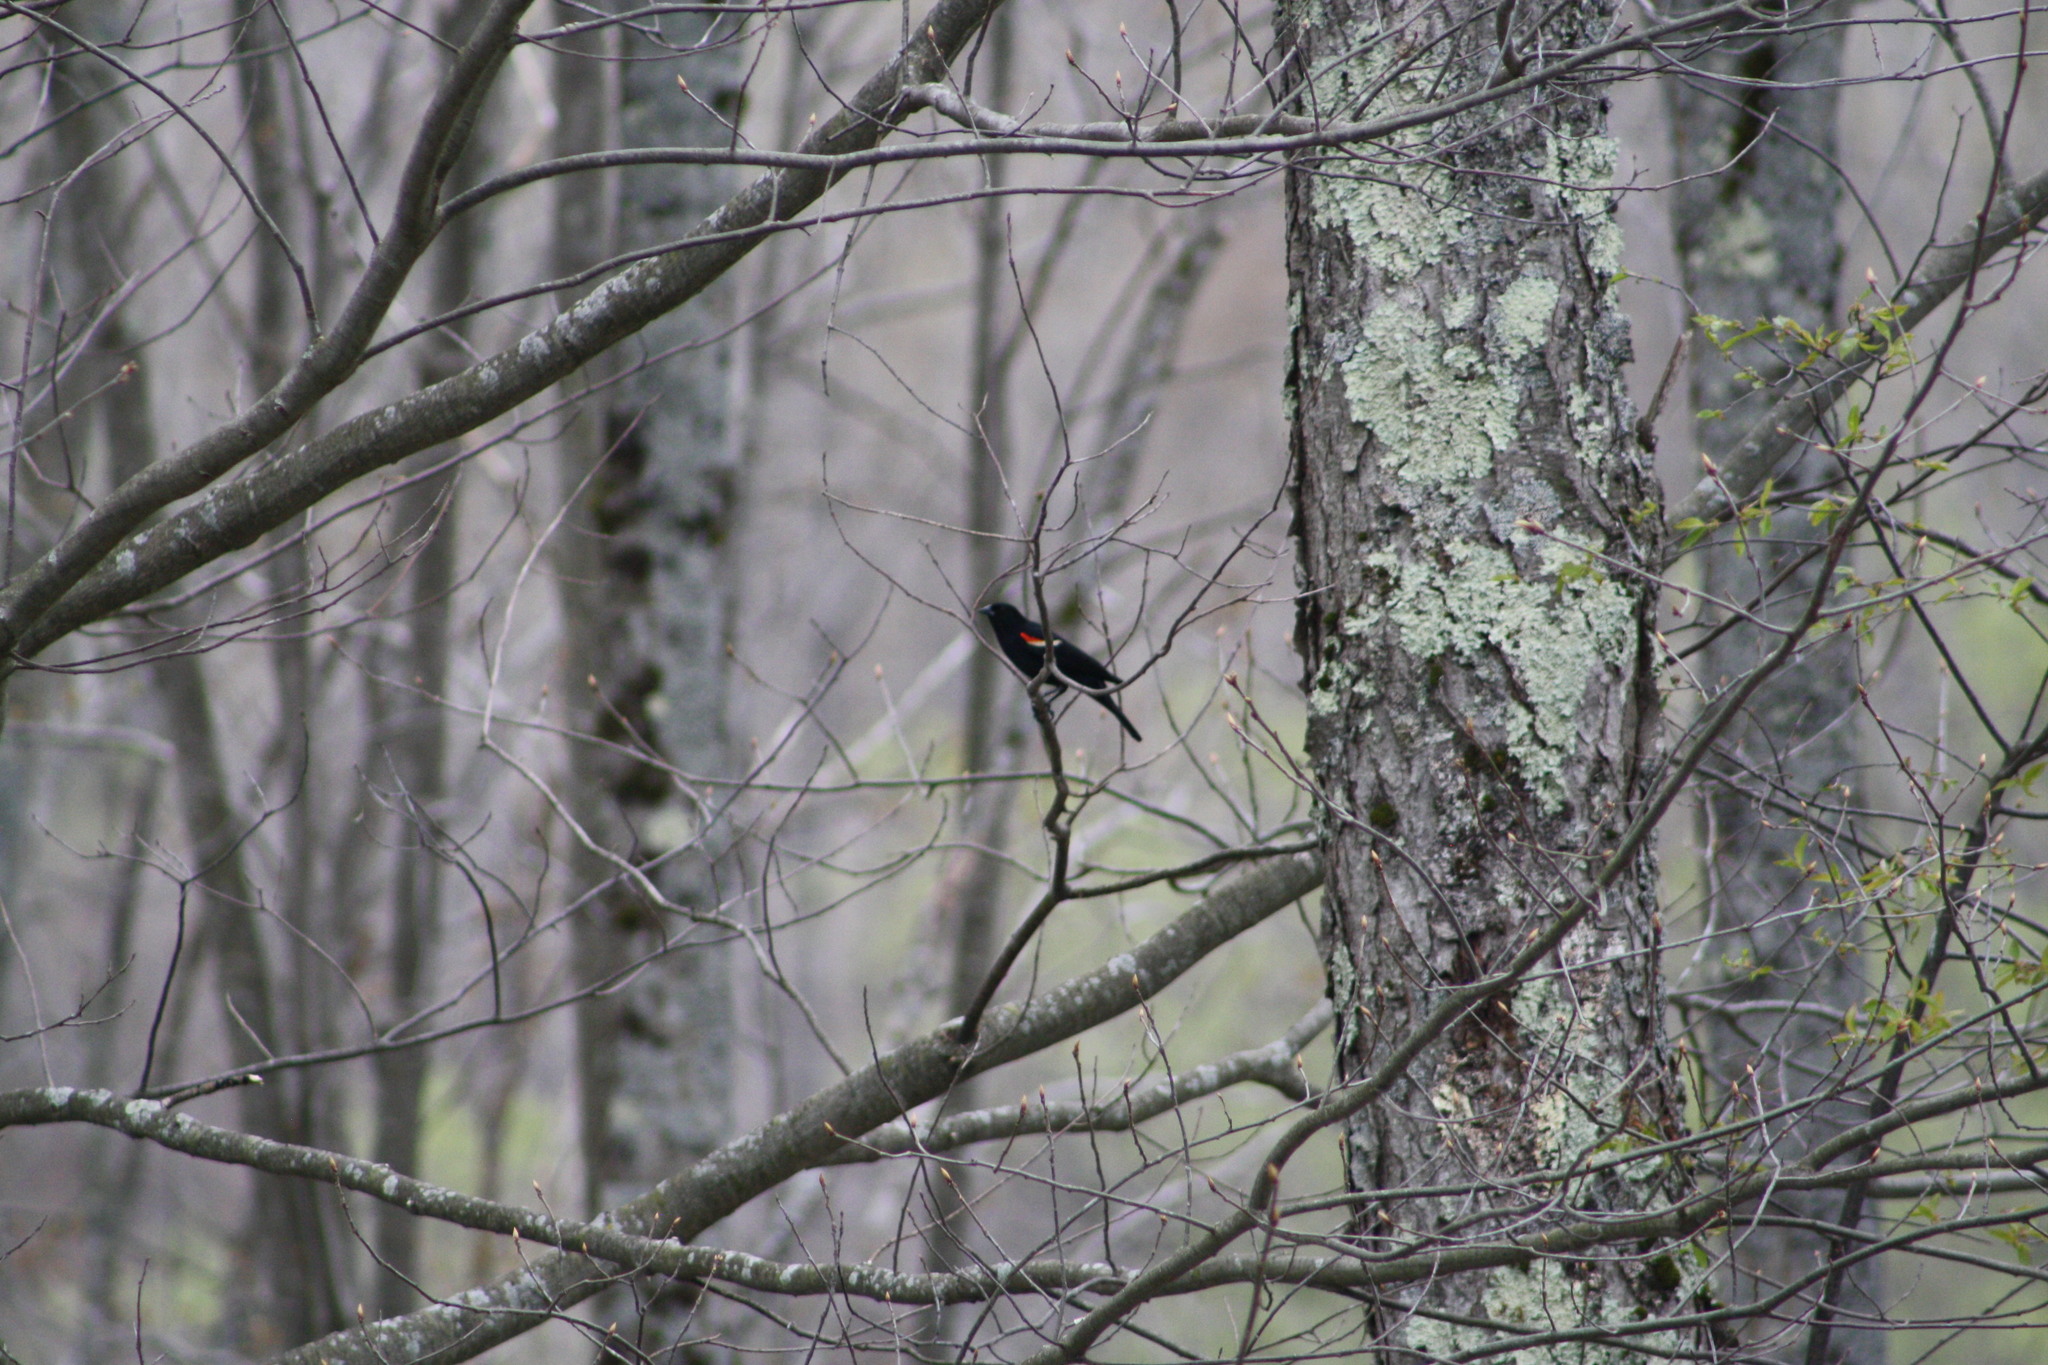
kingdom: Animalia
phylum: Chordata
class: Aves
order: Passeriformes
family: Icteridae
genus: Agelaius
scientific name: Agelaius phoeniceus
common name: Red-winged blackbird
